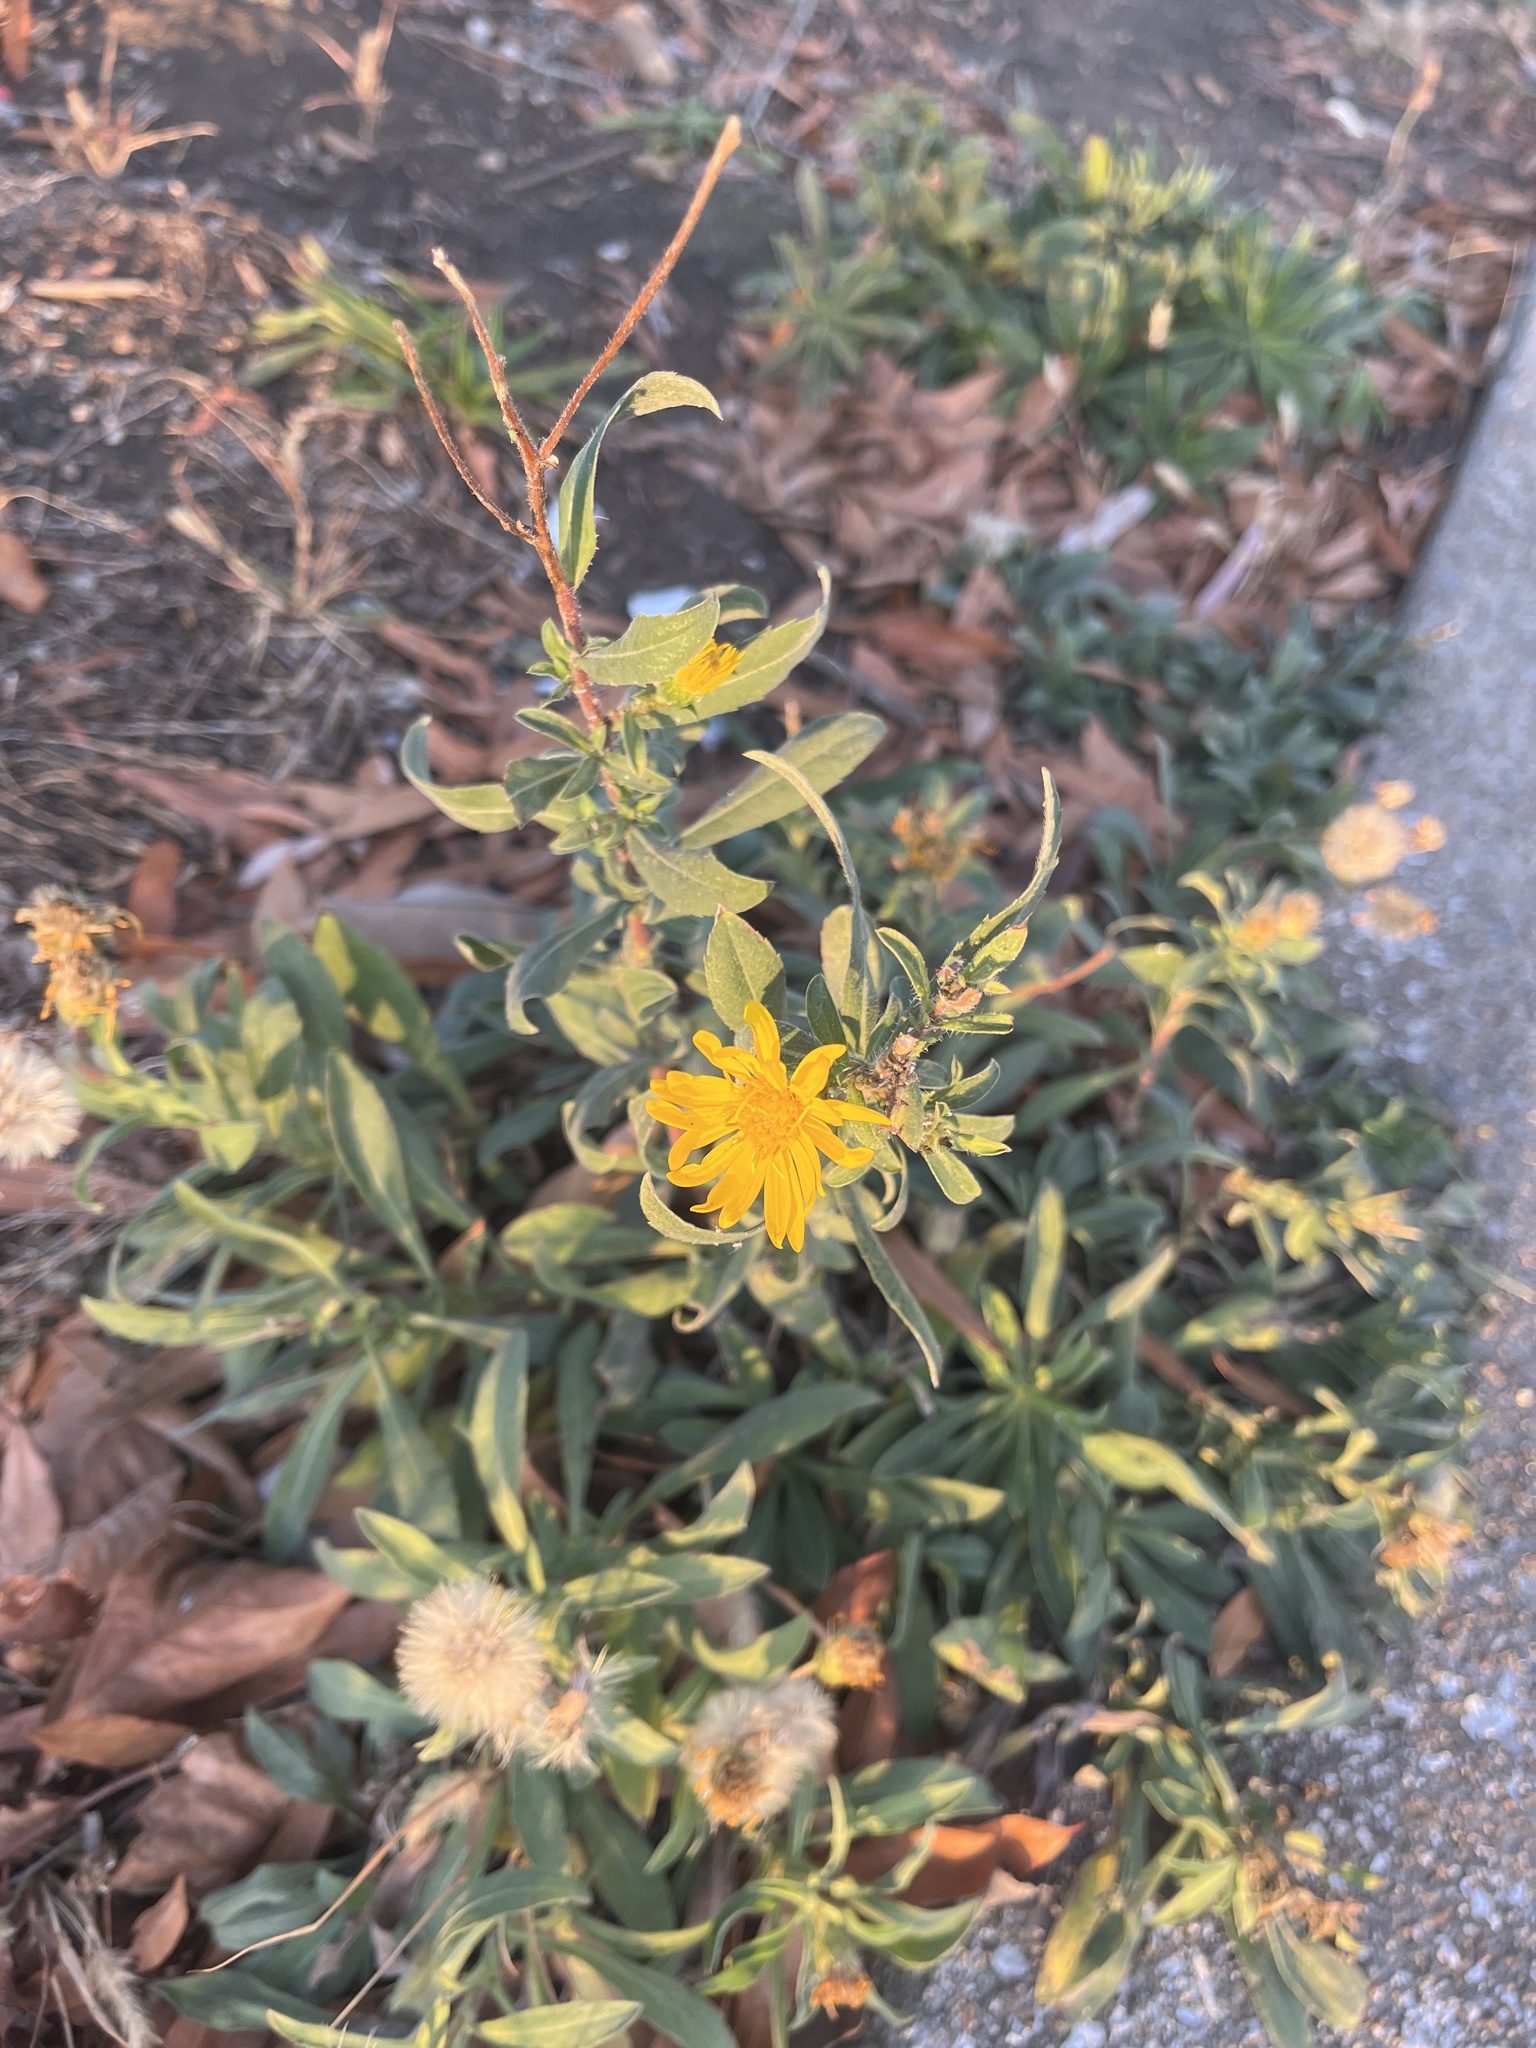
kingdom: Plantae
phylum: Tracheophyta
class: Magnoliopsida
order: Asterales
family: Asteraceae
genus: Heterotheca
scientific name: Heterotheca camporum
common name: Prairie golden-aster
